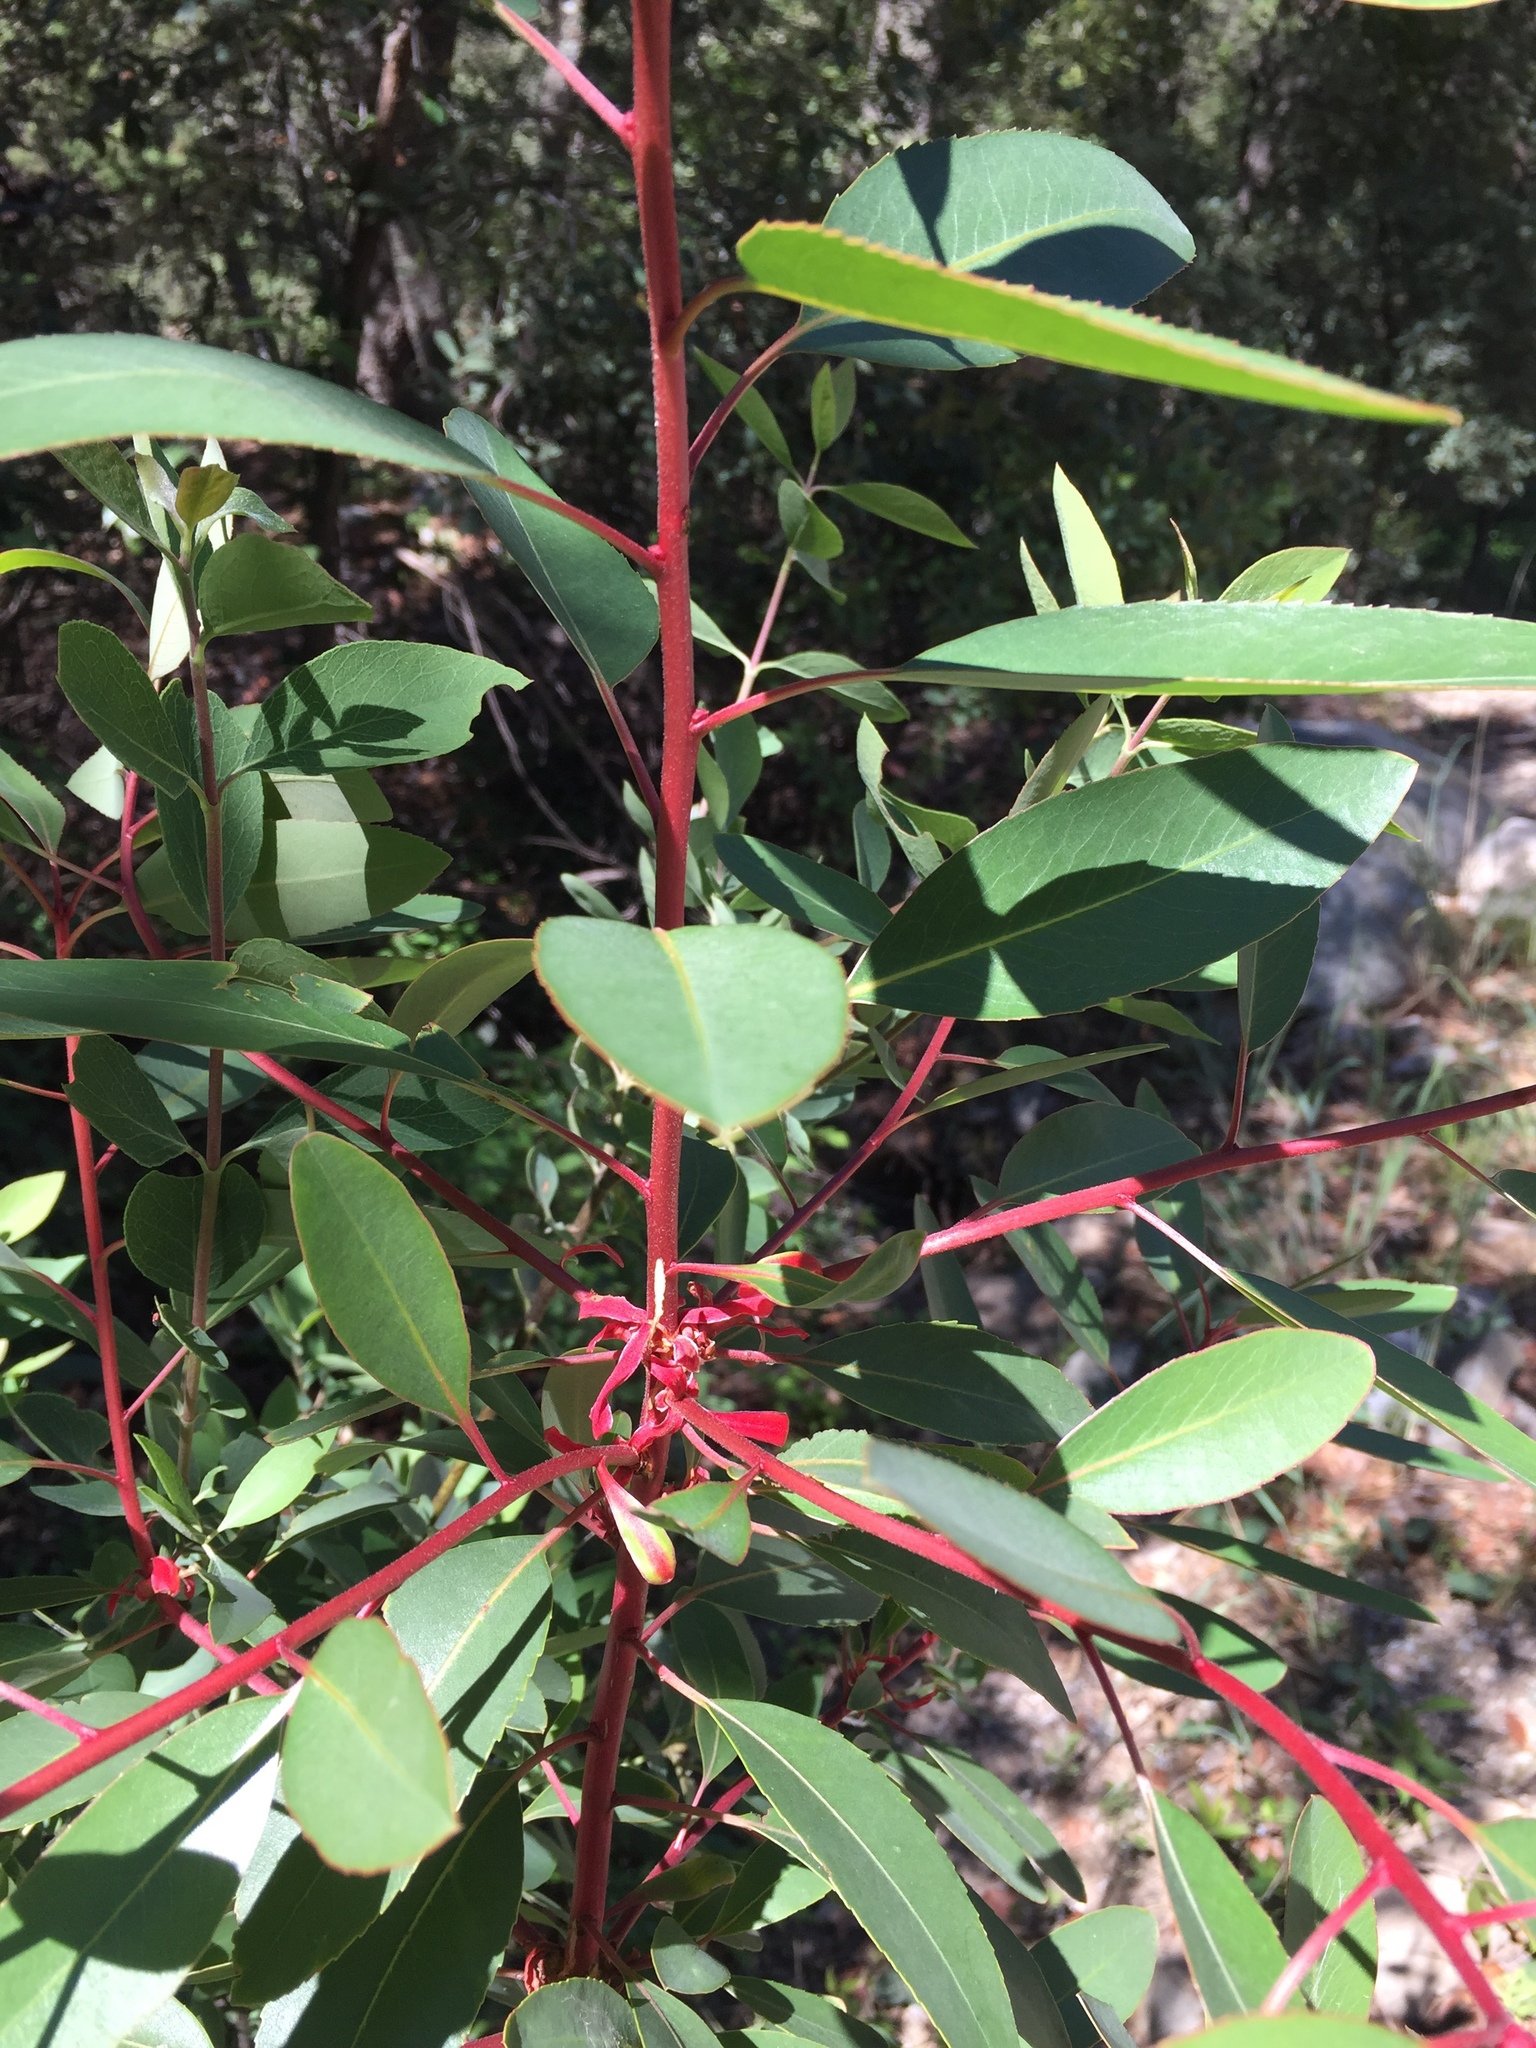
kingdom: Plantae
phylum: Tracheophyta
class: Magnoliopsida
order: Ericales
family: Ericaceae
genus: Arbutus
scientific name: Arbutus arizonica
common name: Arizona madrone
